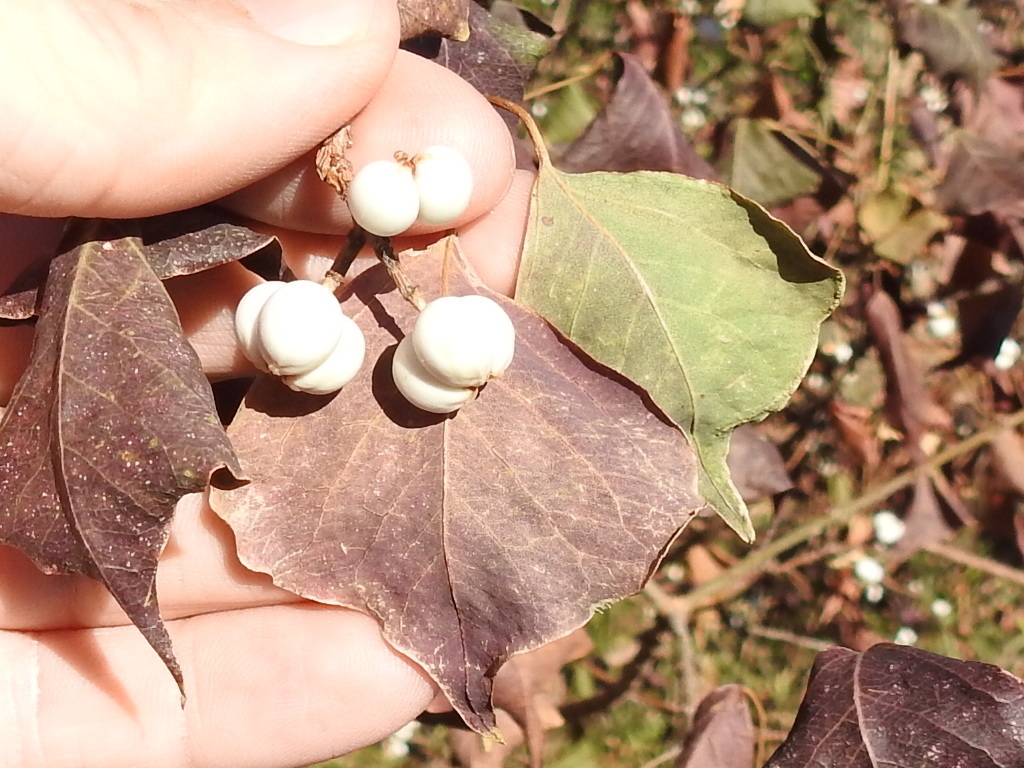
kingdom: Plantae
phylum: Tracheophyta
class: Magnoliopsida
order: Malpighiales
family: Euphorbiaceae
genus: Triadica
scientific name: Triadica sebifera
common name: Chinese tallow
